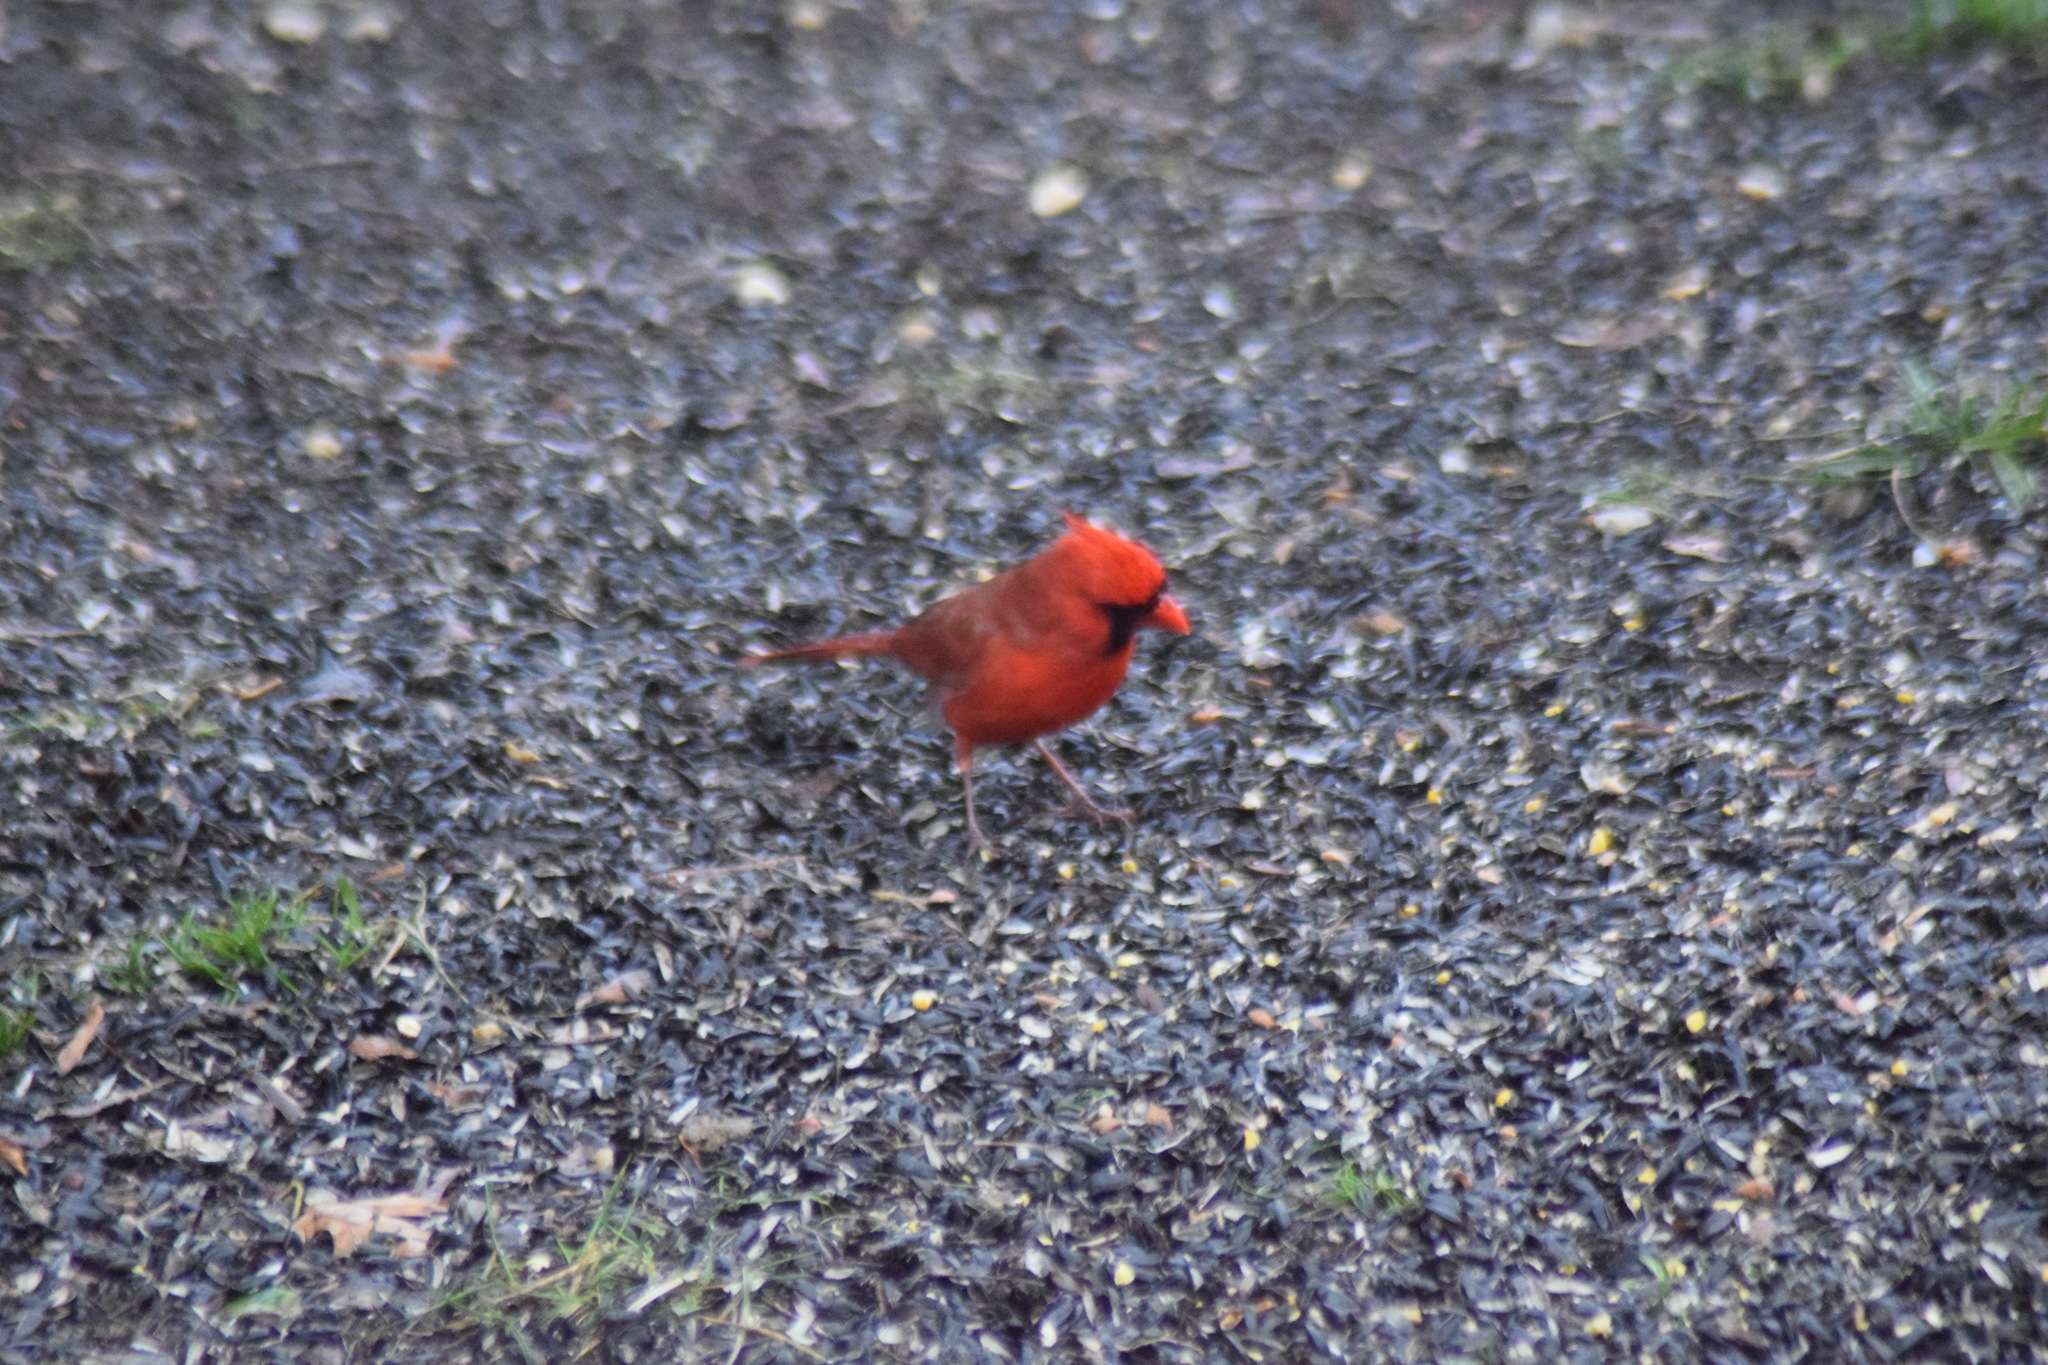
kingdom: Animalia
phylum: Chordata
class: Aves
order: Passeriformes
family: Cardinalidae
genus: Cardinalis
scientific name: Cardinalis cardinalis
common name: Northern cardinal
